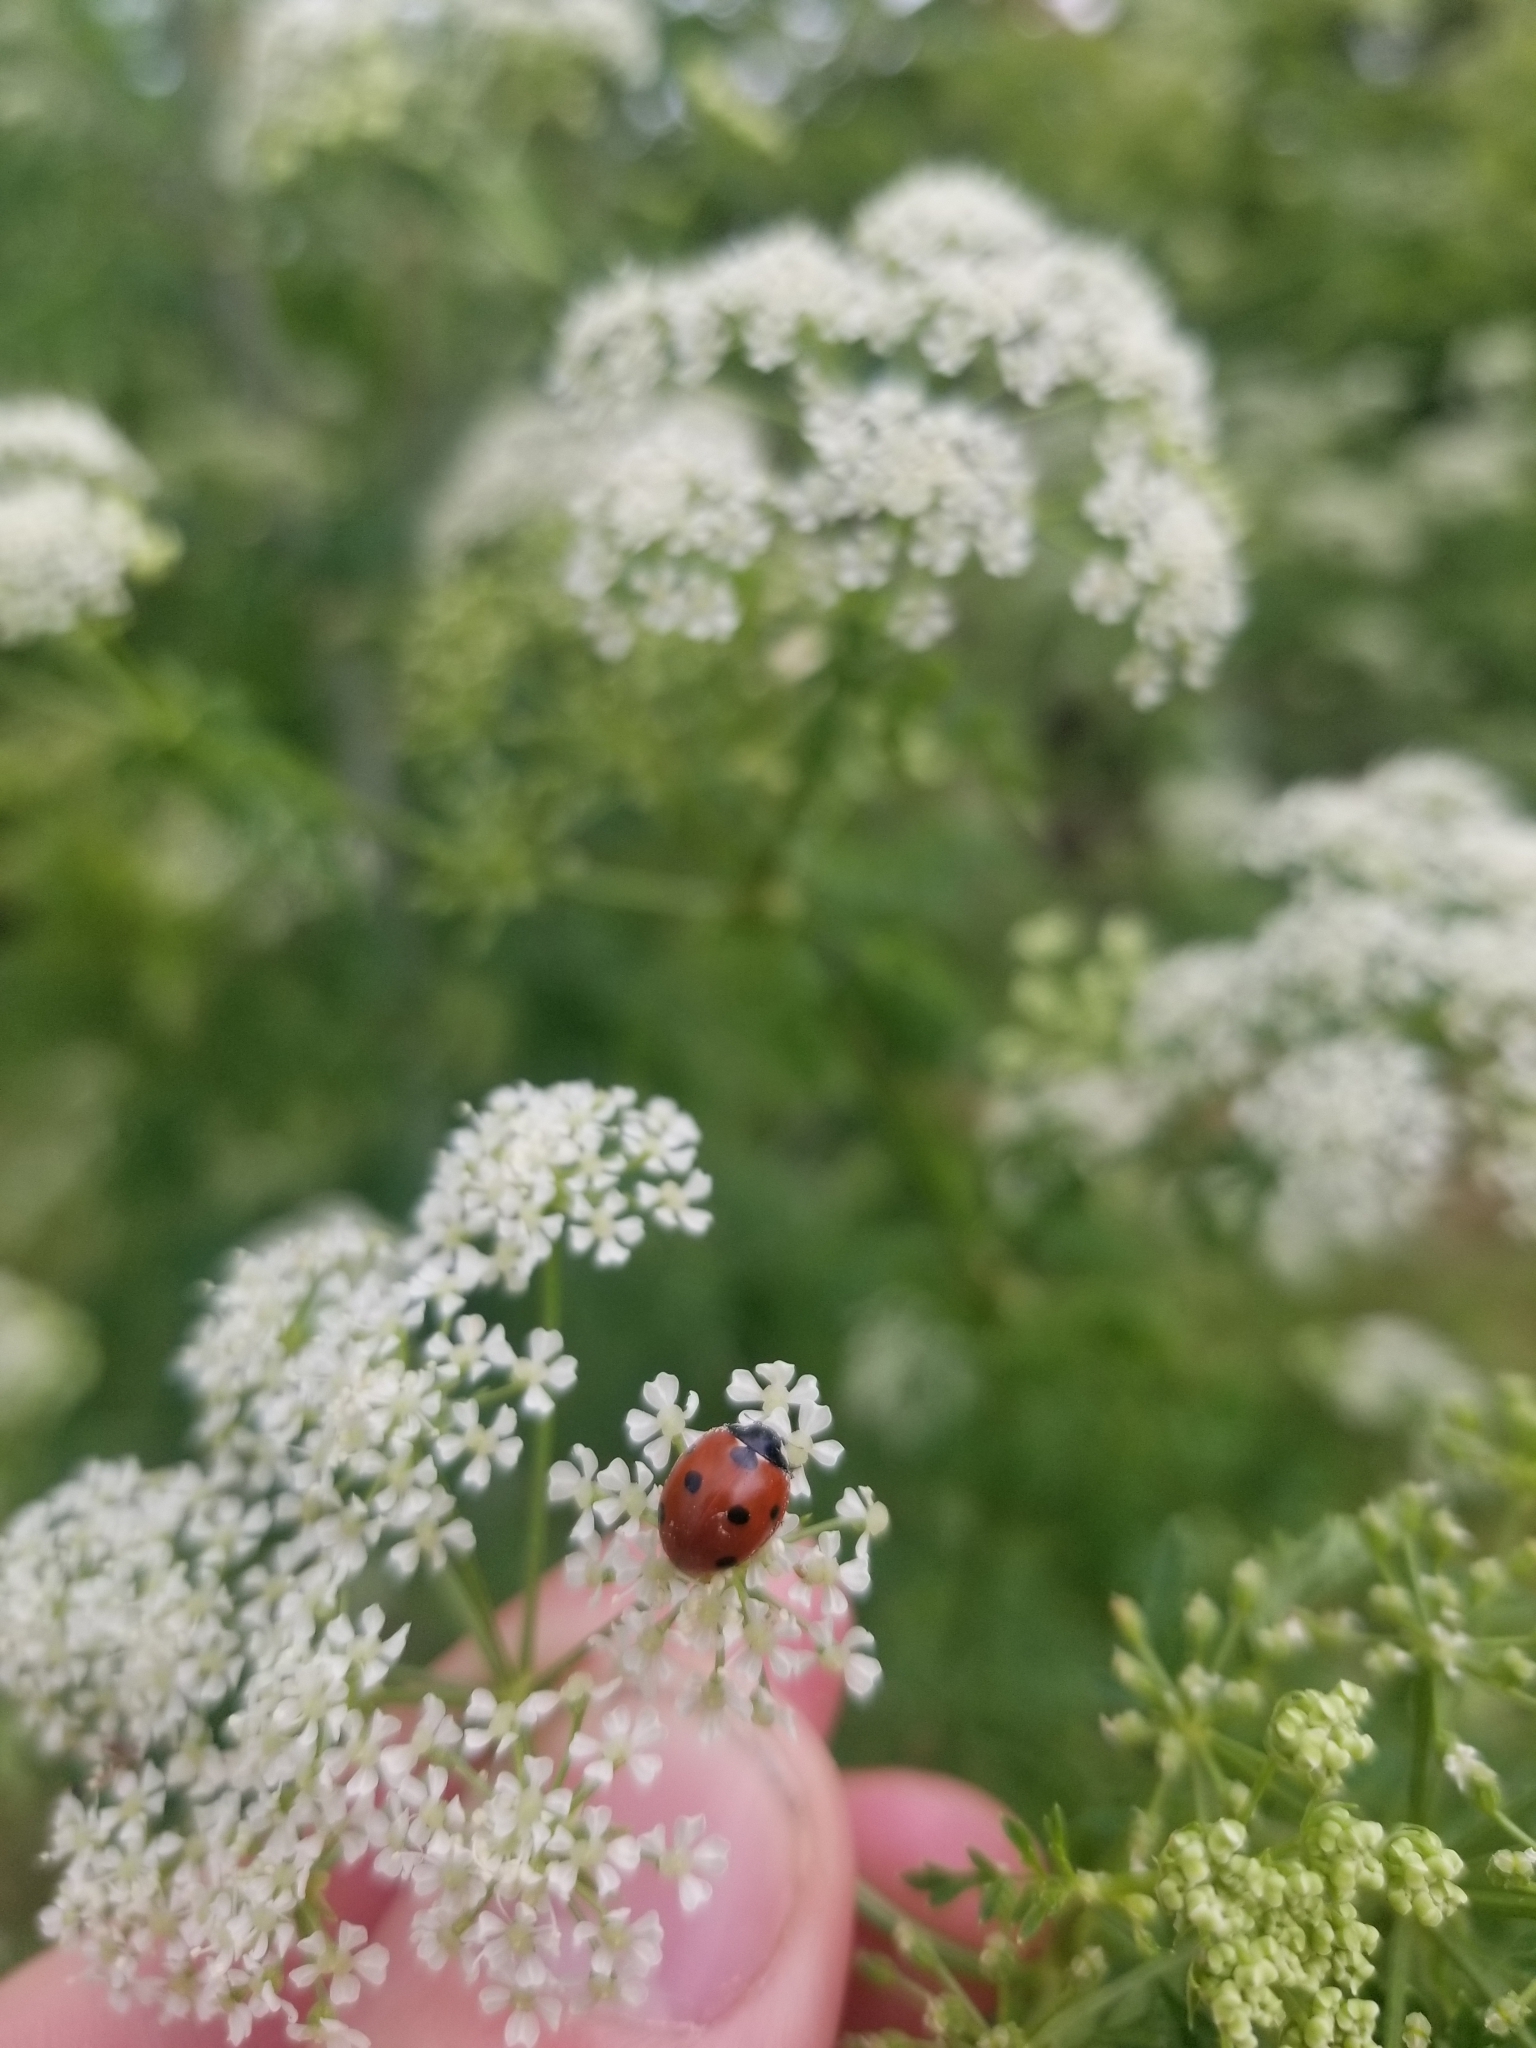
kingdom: Animalia
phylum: Arthropoda
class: Insecta
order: Coleoptera
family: Coccinellidae
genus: Coccinella
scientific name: Coccinella septempunctata
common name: Sevenspotted lady beetle
